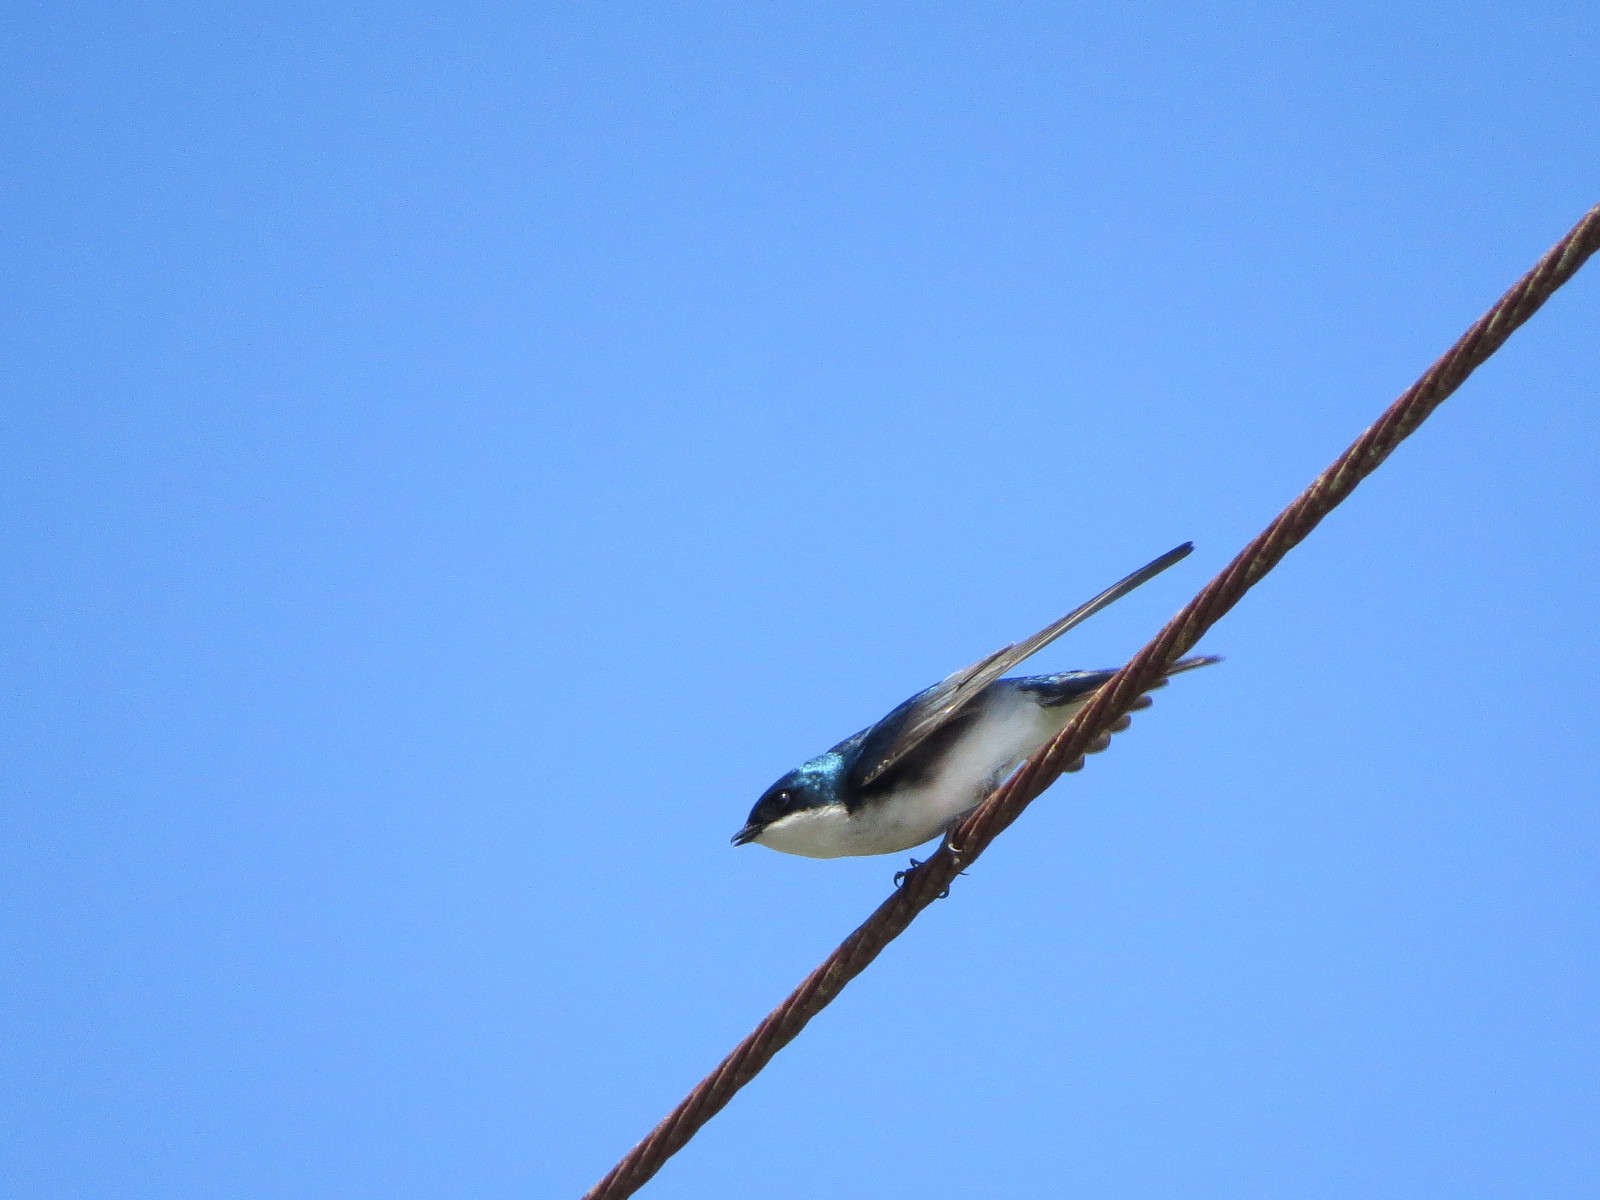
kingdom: Animalia
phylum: Chordata
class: Aves
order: Passeriformes
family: Hirundinidae
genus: Tachycineta
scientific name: Tachycineta bicolor
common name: Tree swallow
